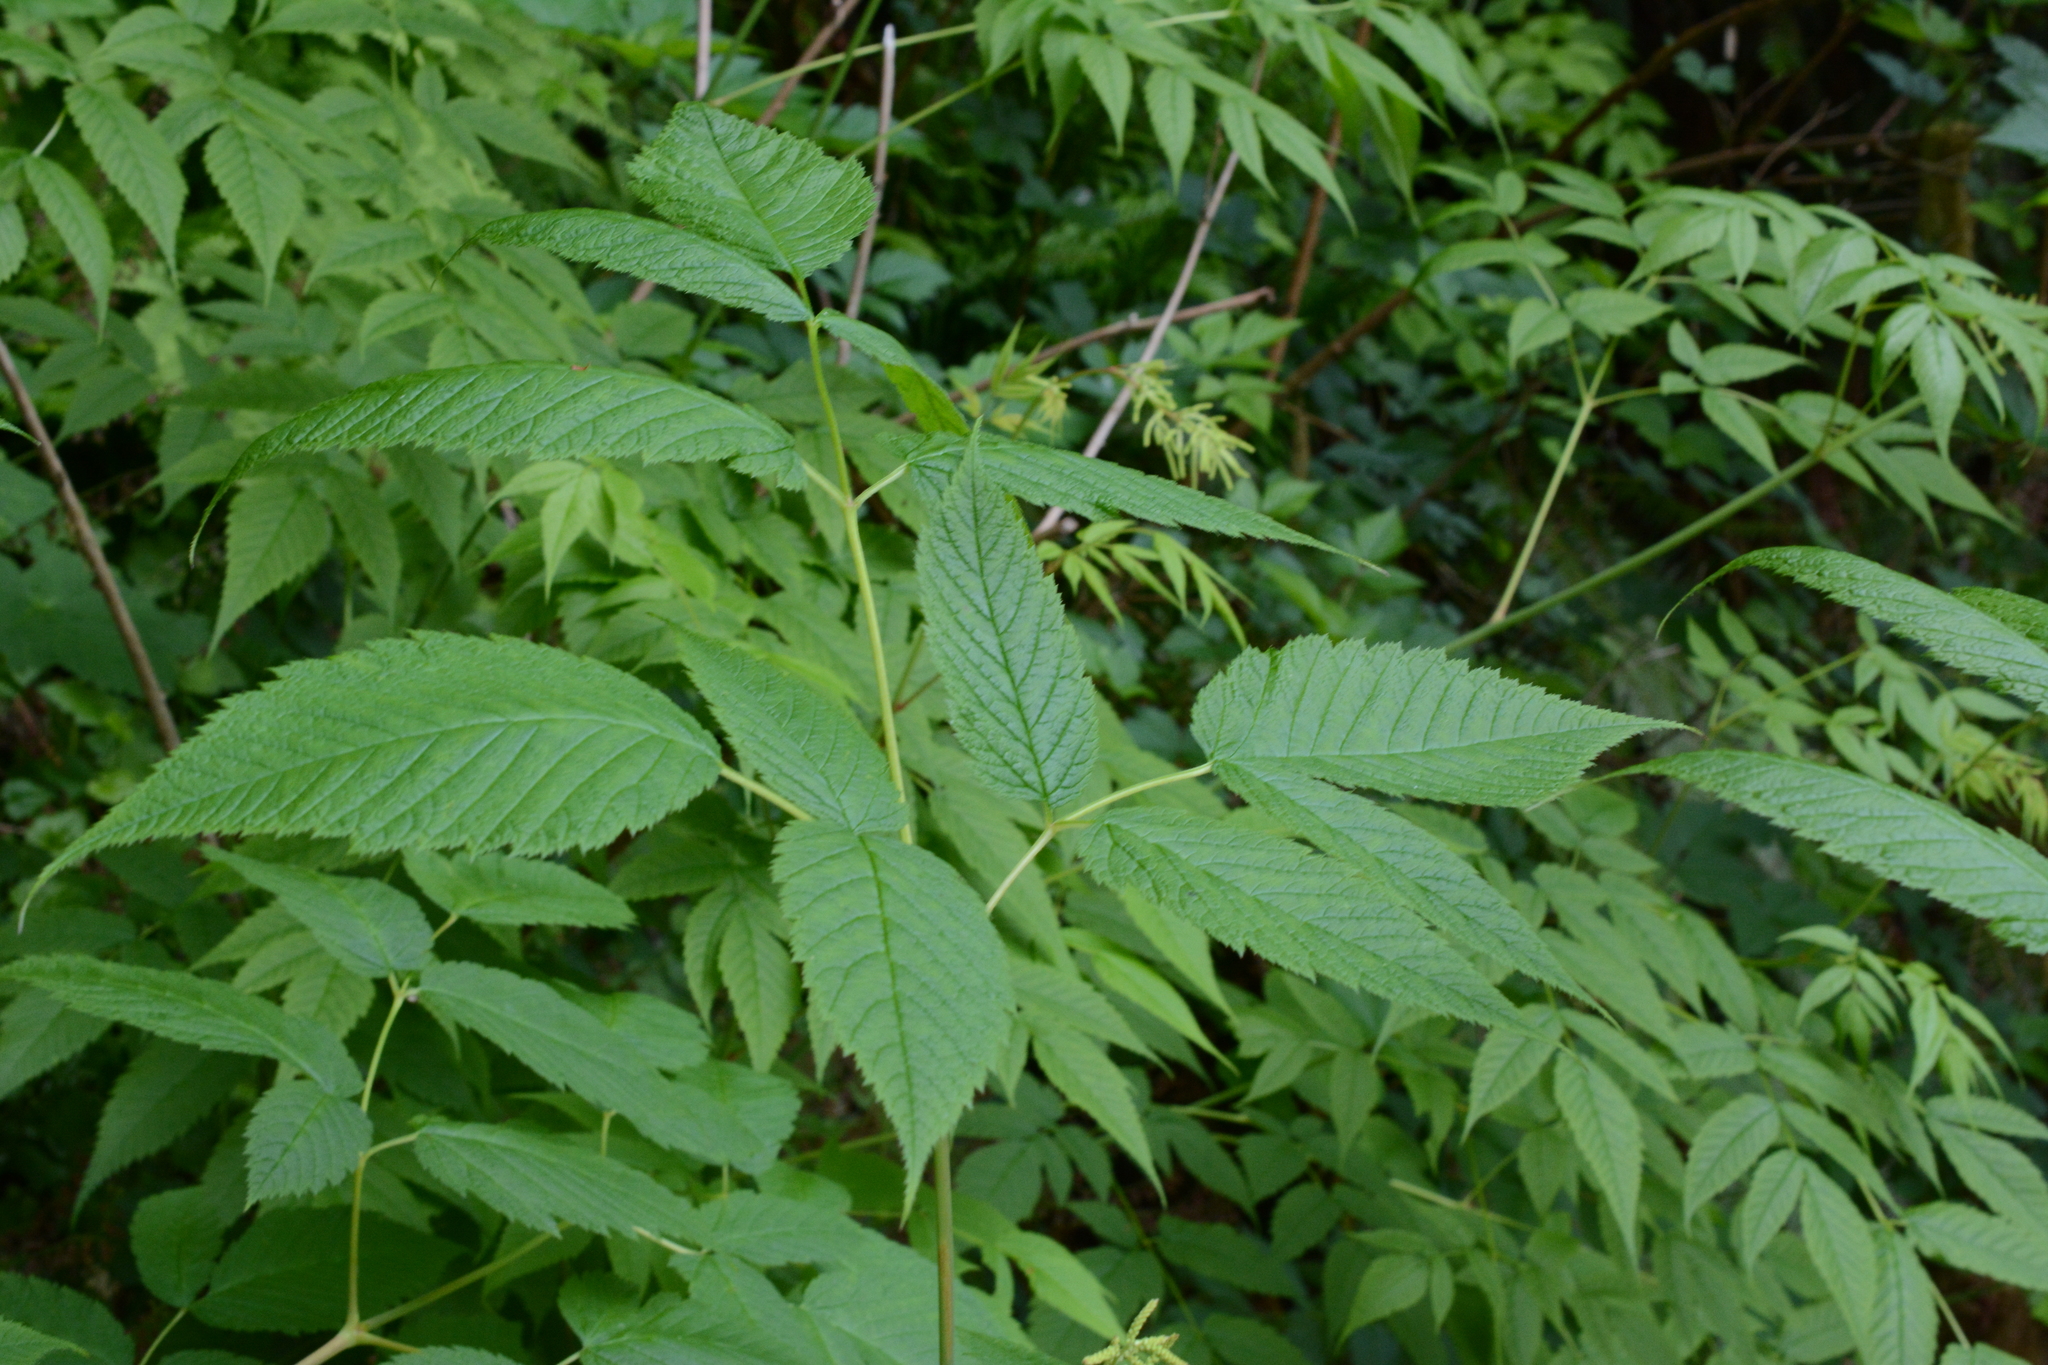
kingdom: Plantae
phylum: Tracheophyta
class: Magnoliopsida
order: Rosales
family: Rosaceae
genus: Aruncus
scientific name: Aruncus dioicus
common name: Buck's-beard
